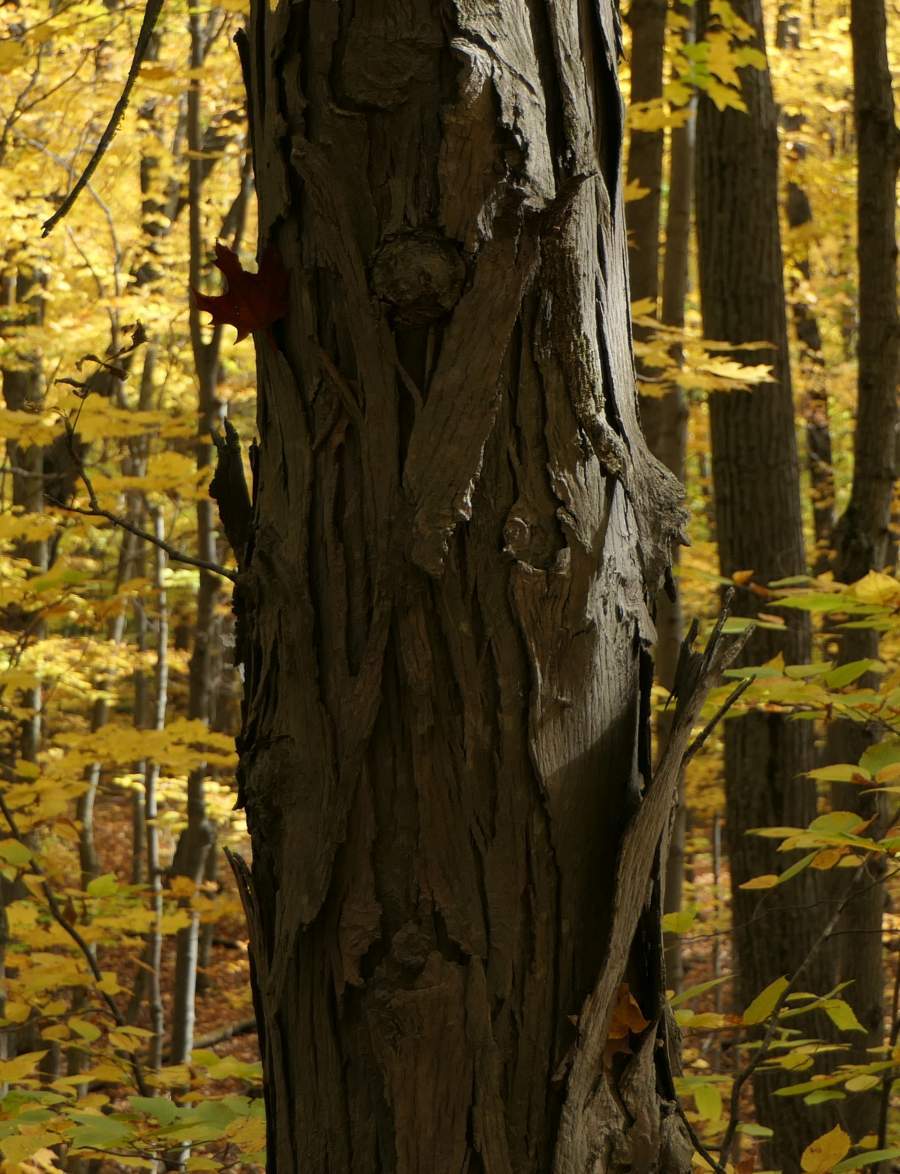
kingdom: Plantae
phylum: Tracheophyta
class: Magnoliopsida
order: Fagales
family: Juglandaceae
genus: Carya
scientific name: Carya ovata
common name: Shagbark hickory
